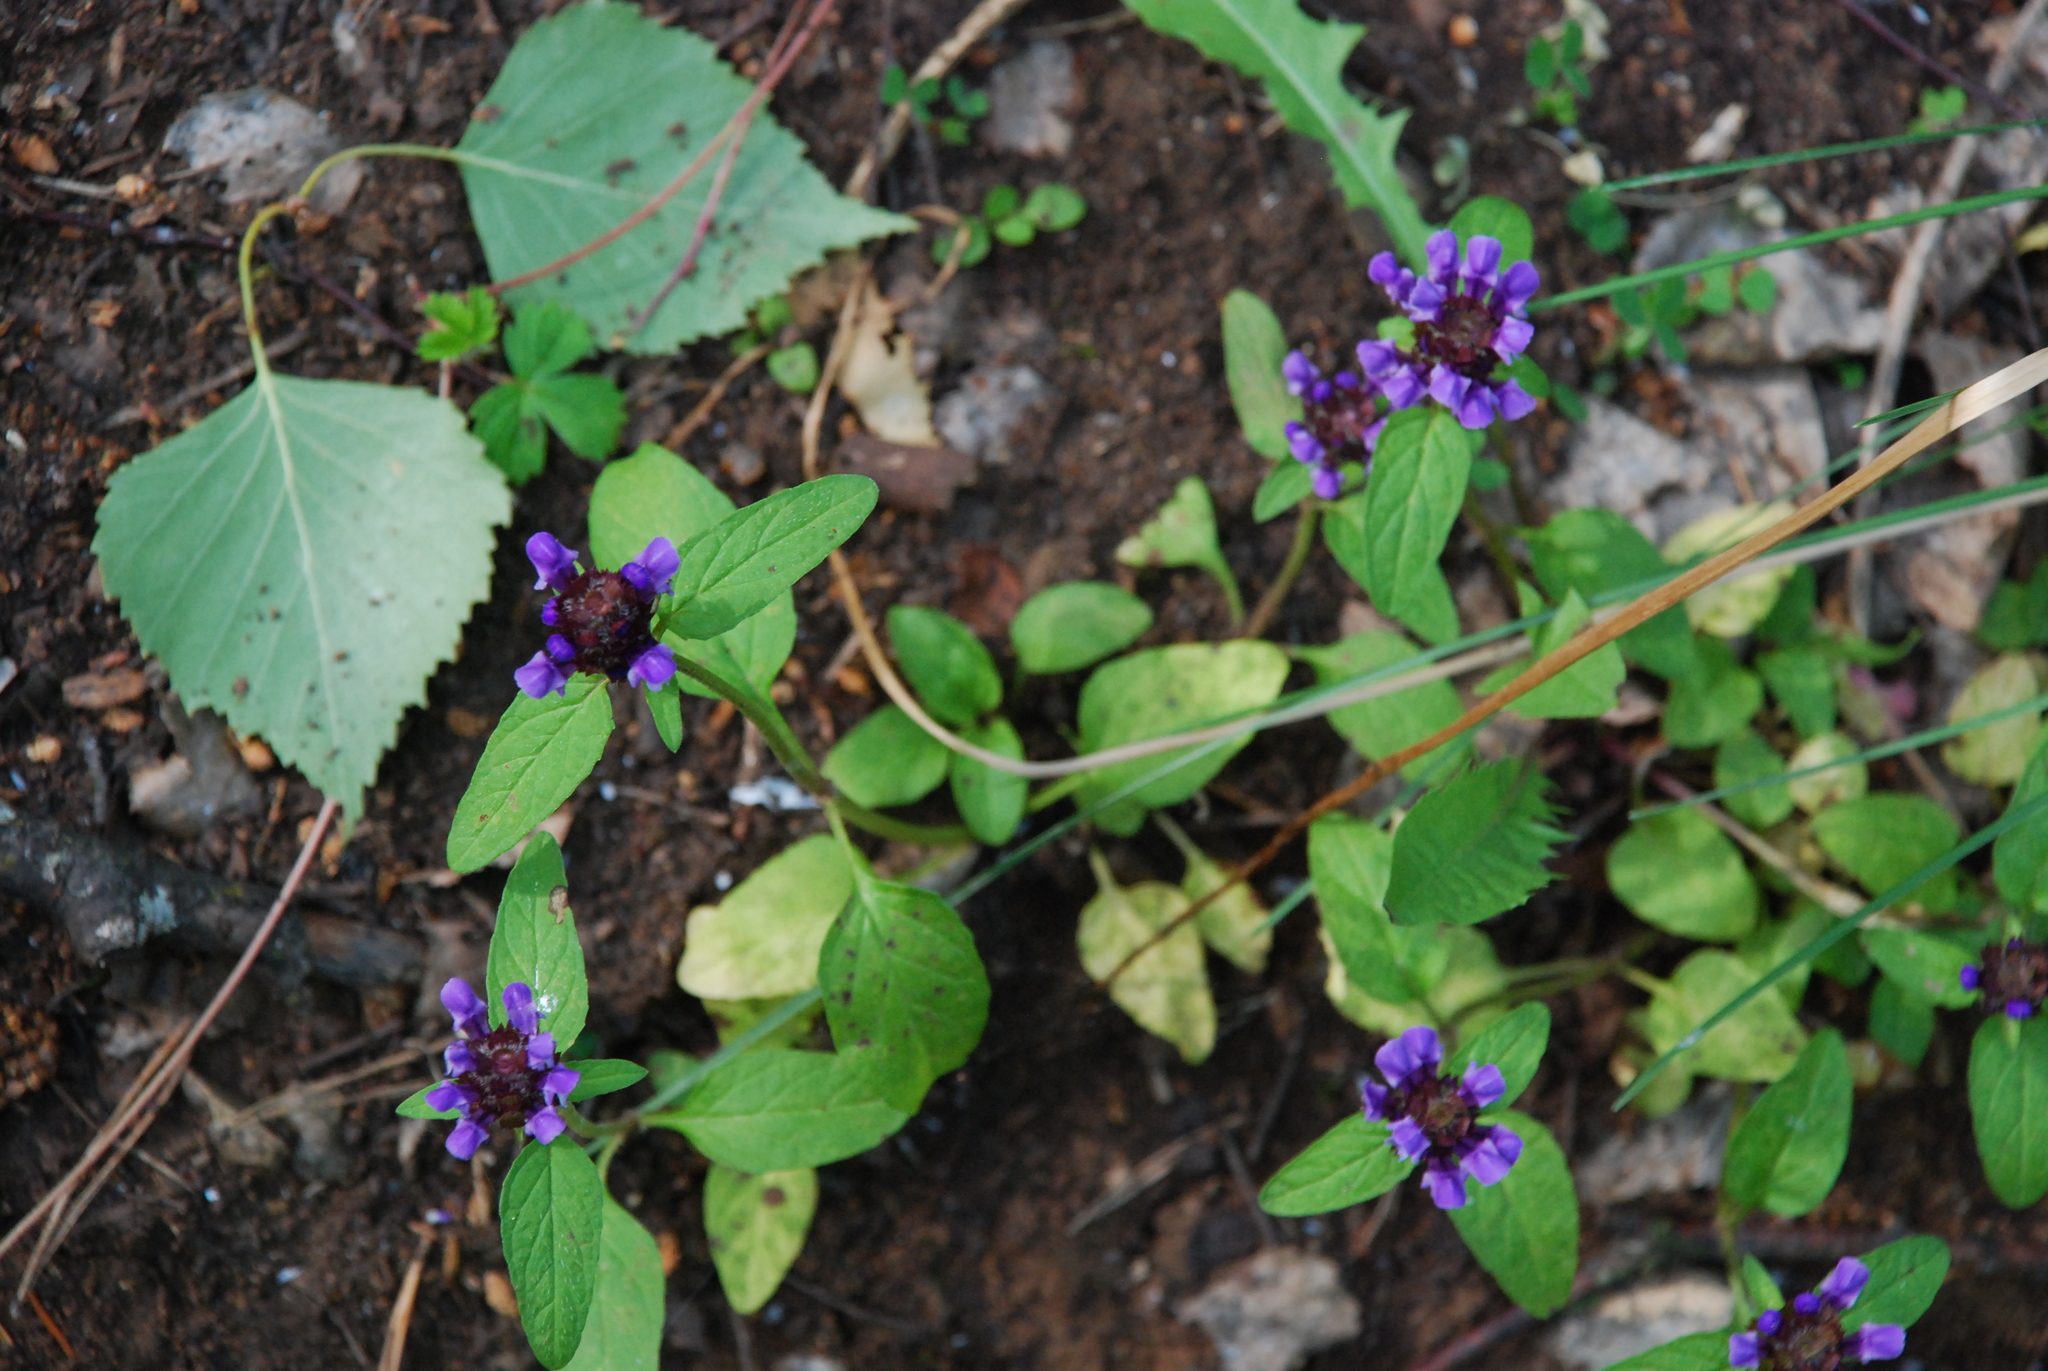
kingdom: Plantae
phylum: Tracheophyta
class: Magnoliopsida
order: Lamiales
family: Lamiaceae
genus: Prunella
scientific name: Prunella vulgaris
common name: Heal-all
